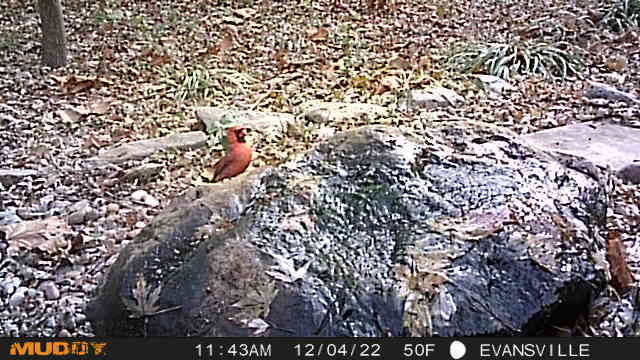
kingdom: Animalia
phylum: Chordata
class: Aves
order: Passeriformes
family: Cardinalidae
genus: Cardinalis
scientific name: Cardinalis cardinalis
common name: Northern cardinal
